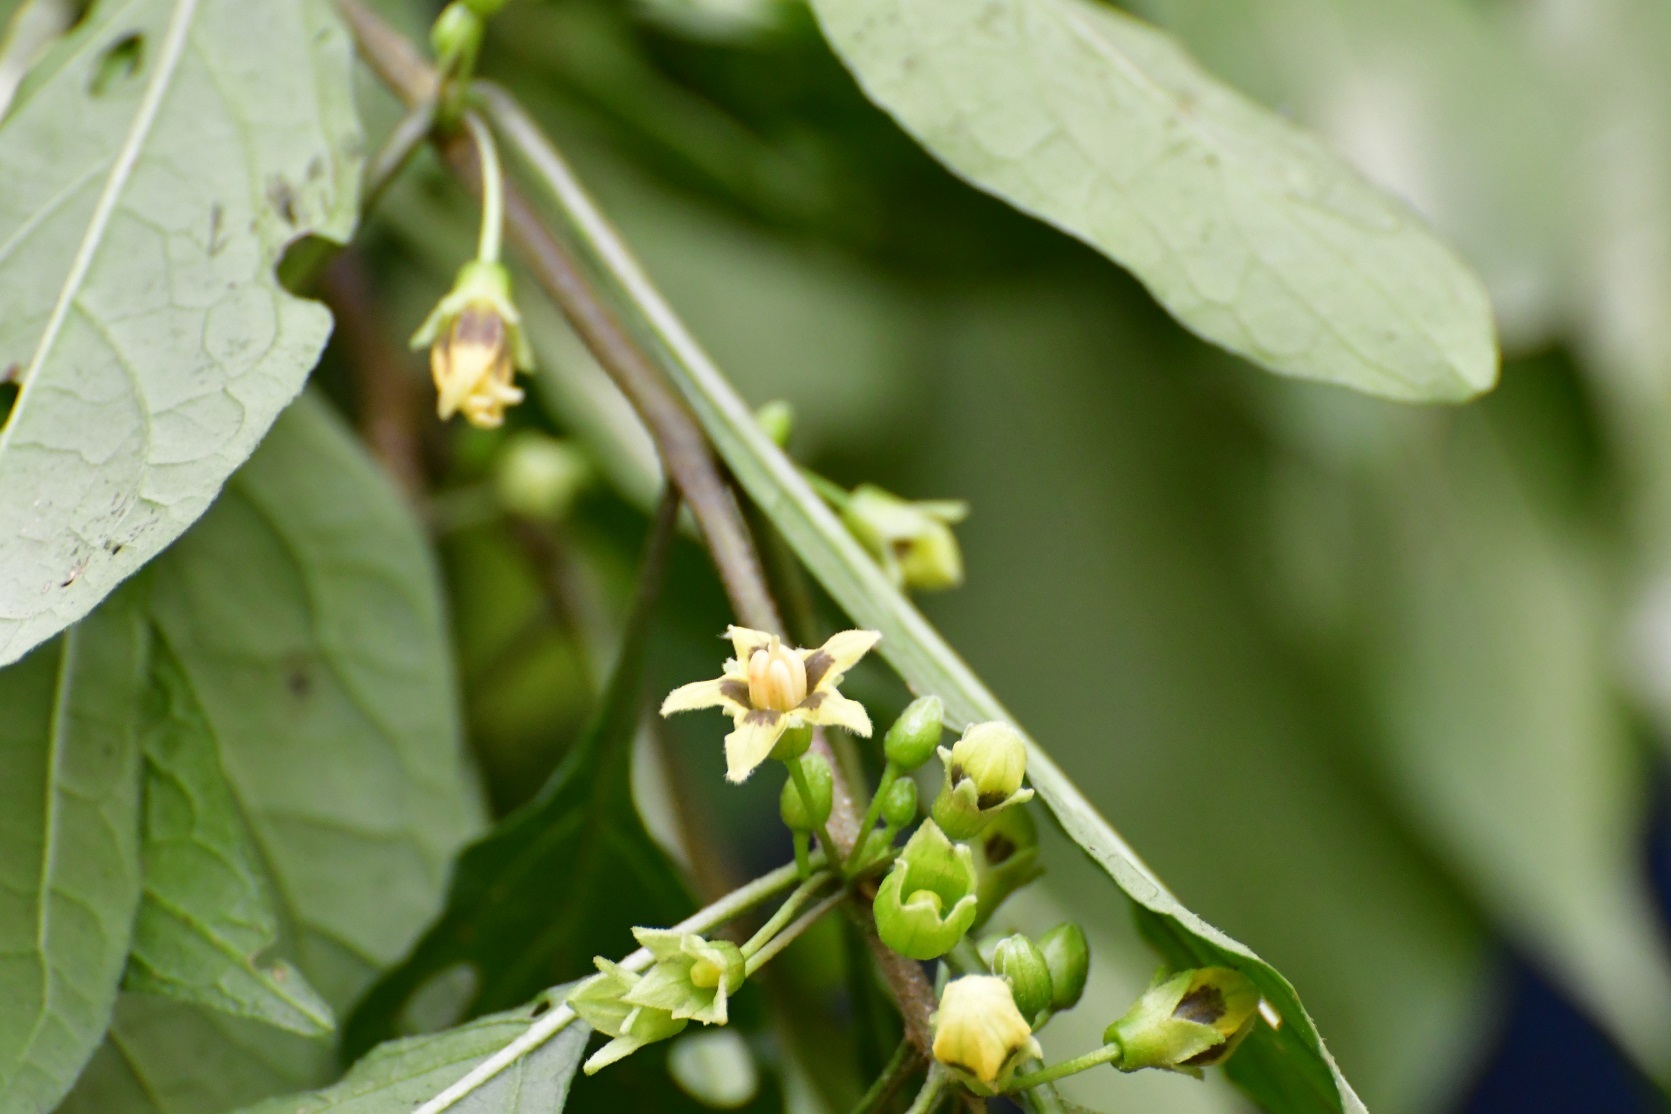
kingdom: Plantae
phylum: Tracheophyta
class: Magnoliopsida
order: Solanales
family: Solanaceae
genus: Physalis
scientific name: Physalis campechiana
